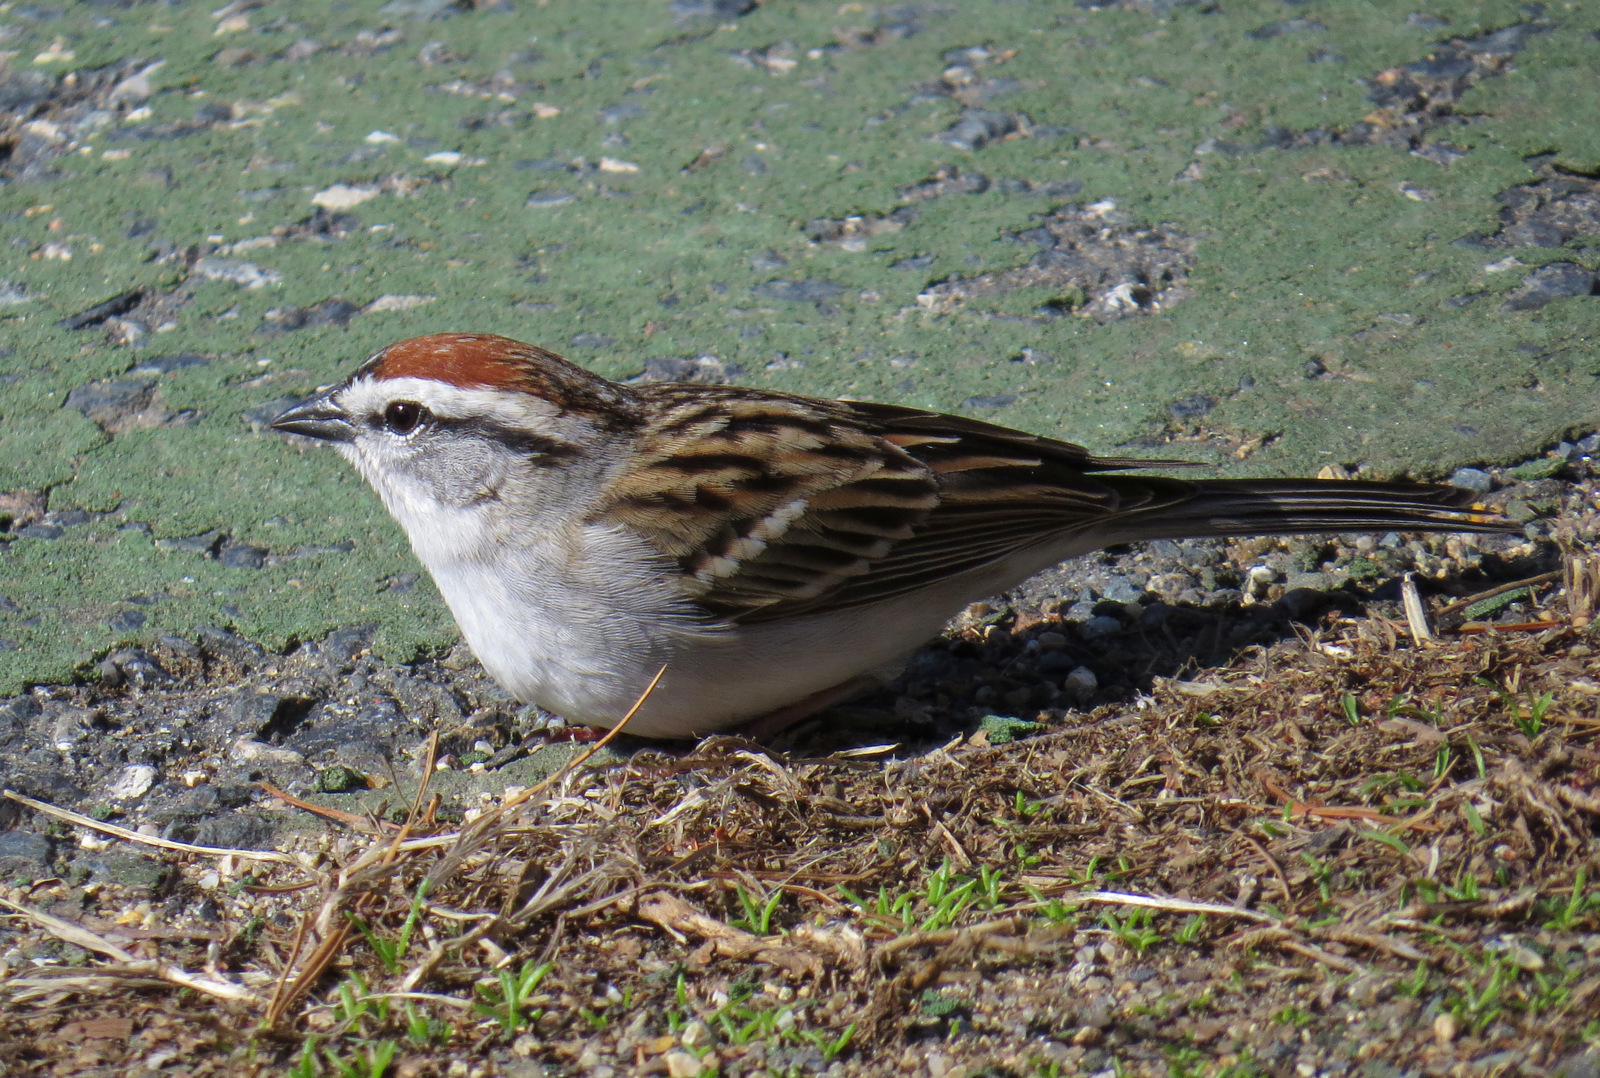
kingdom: Animalia
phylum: Chordata
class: Aves
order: Passeriformes
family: Passerellidae
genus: Spizella
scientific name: Spizella passerina
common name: Chipping sparrow
